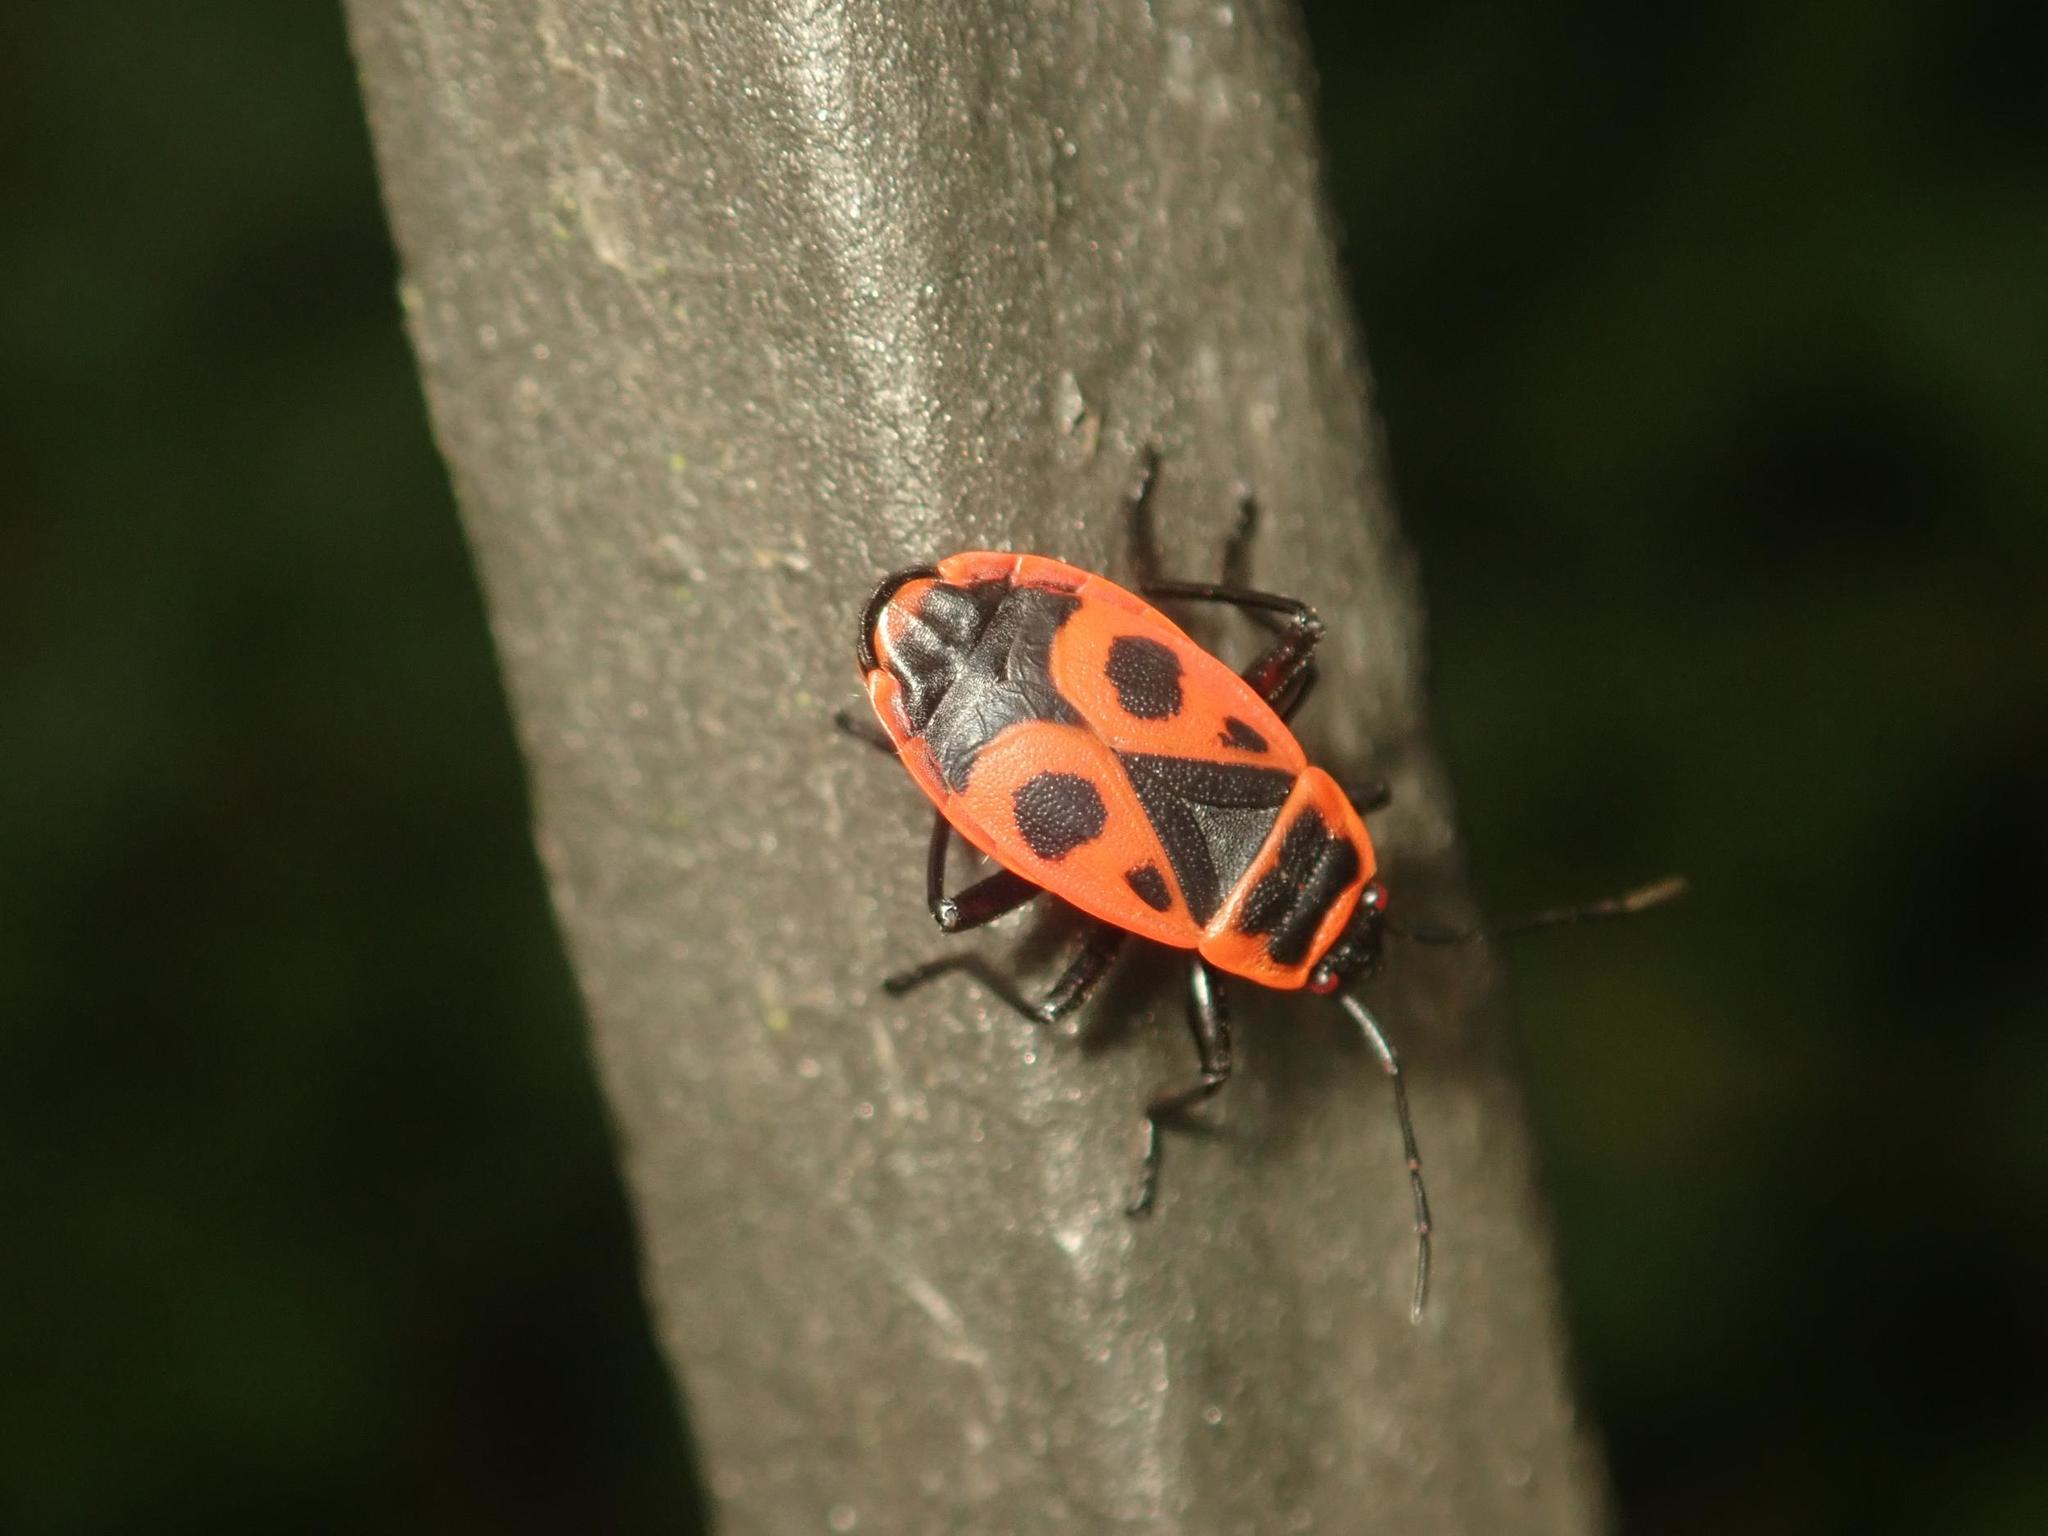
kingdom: Animalia
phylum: Arthropoda
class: Insecta
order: Hemiptera
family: Pyrrhocoridae
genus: Pyrrhocoris
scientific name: Pyrrhocoris apterus
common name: Firebug
